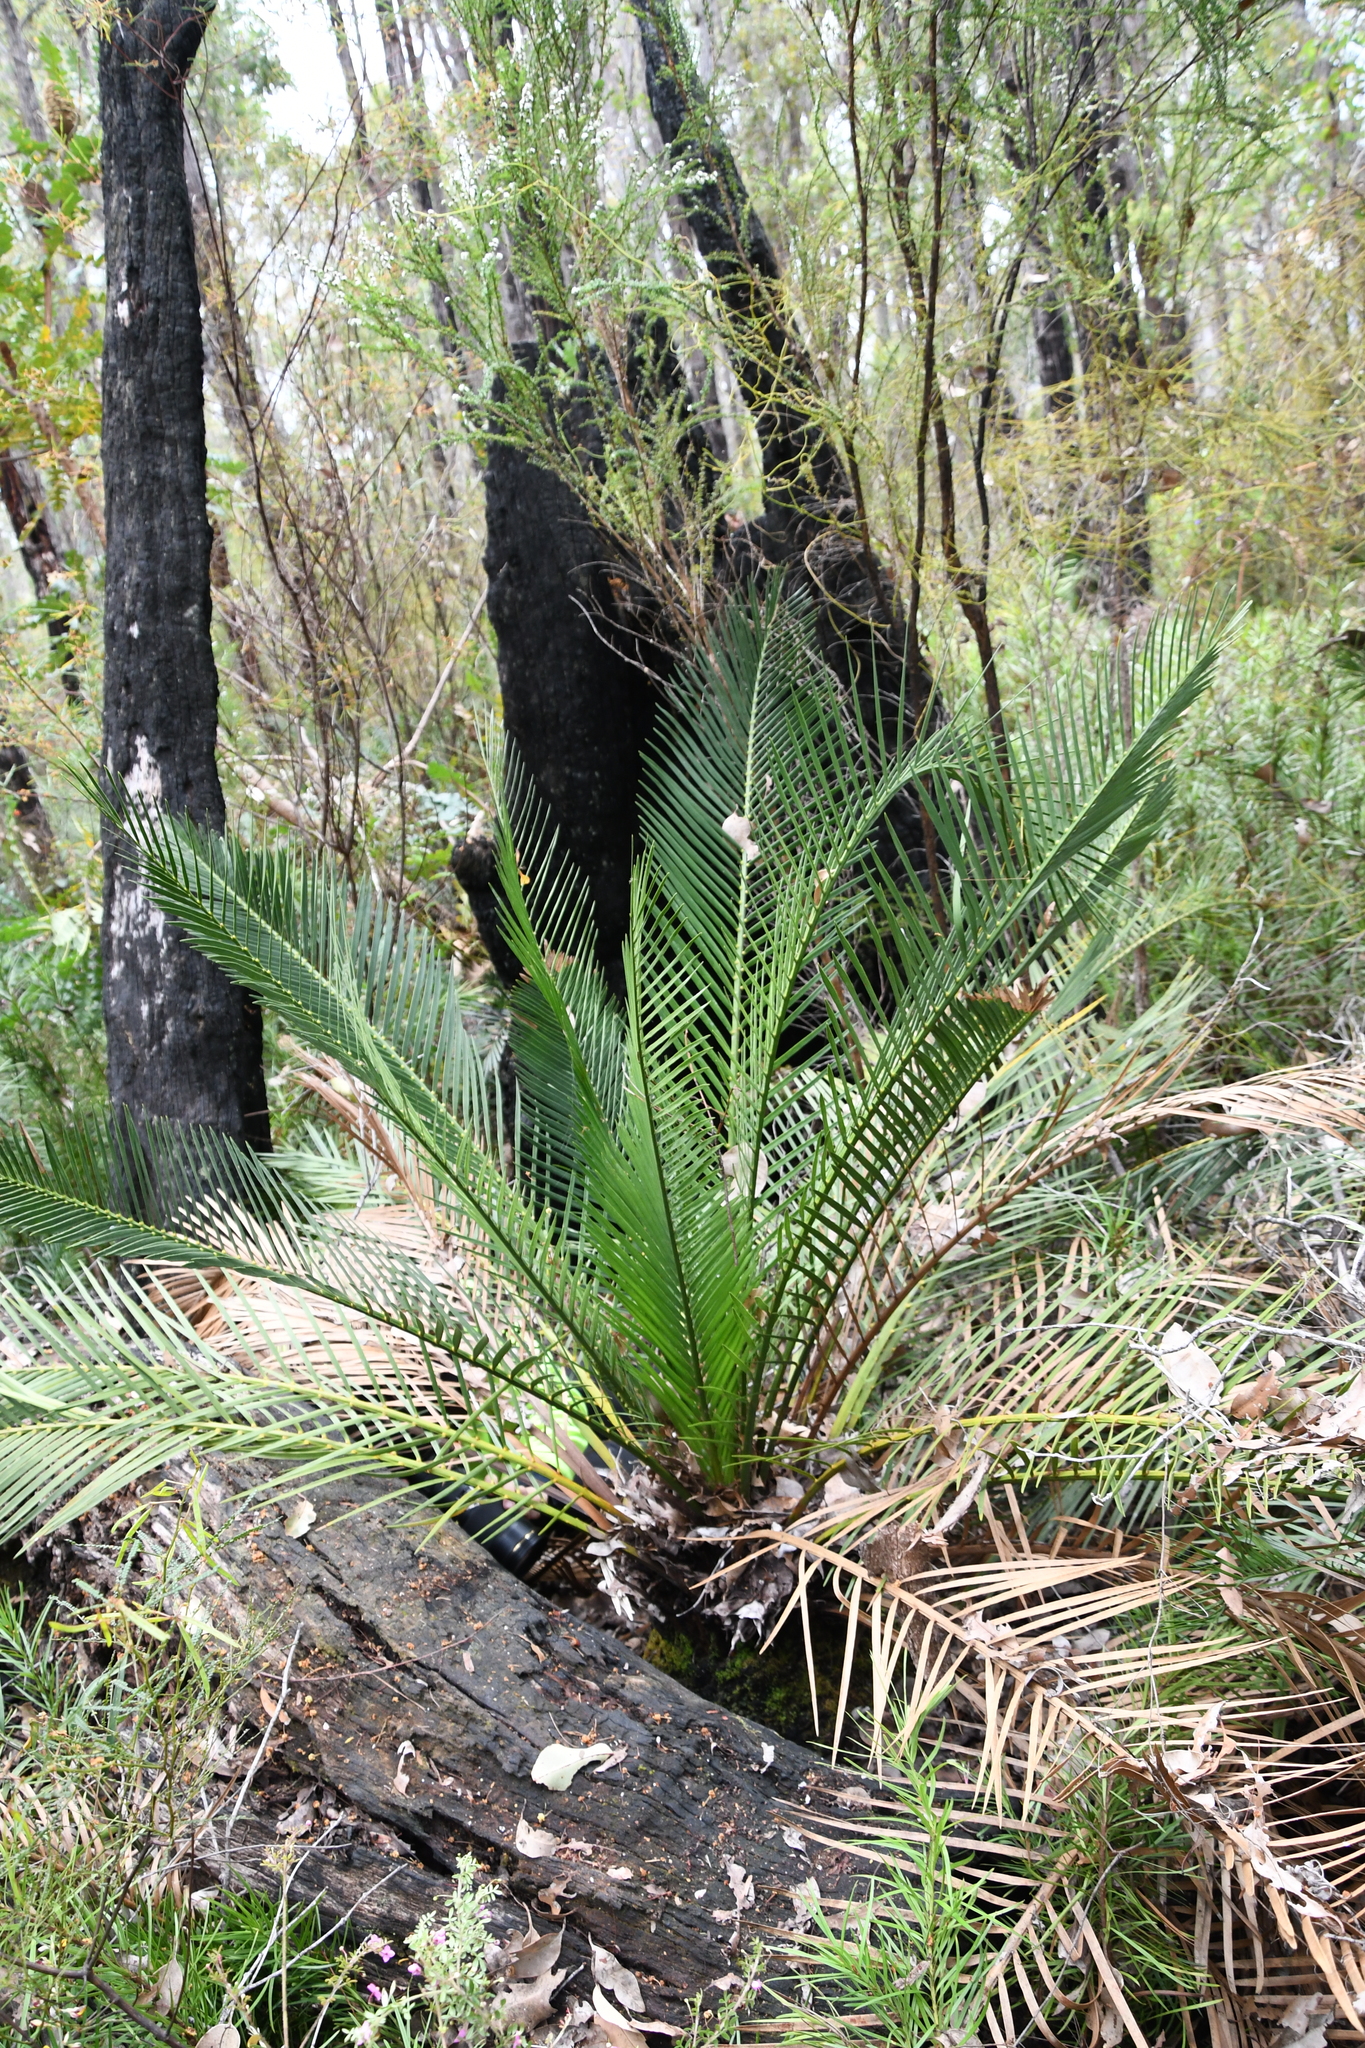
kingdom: Plantae
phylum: Bryophyta
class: Bryopsida
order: Pottiales
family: Pottiaceae
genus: Calymperastrum
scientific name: Calymperastrum latifolium
